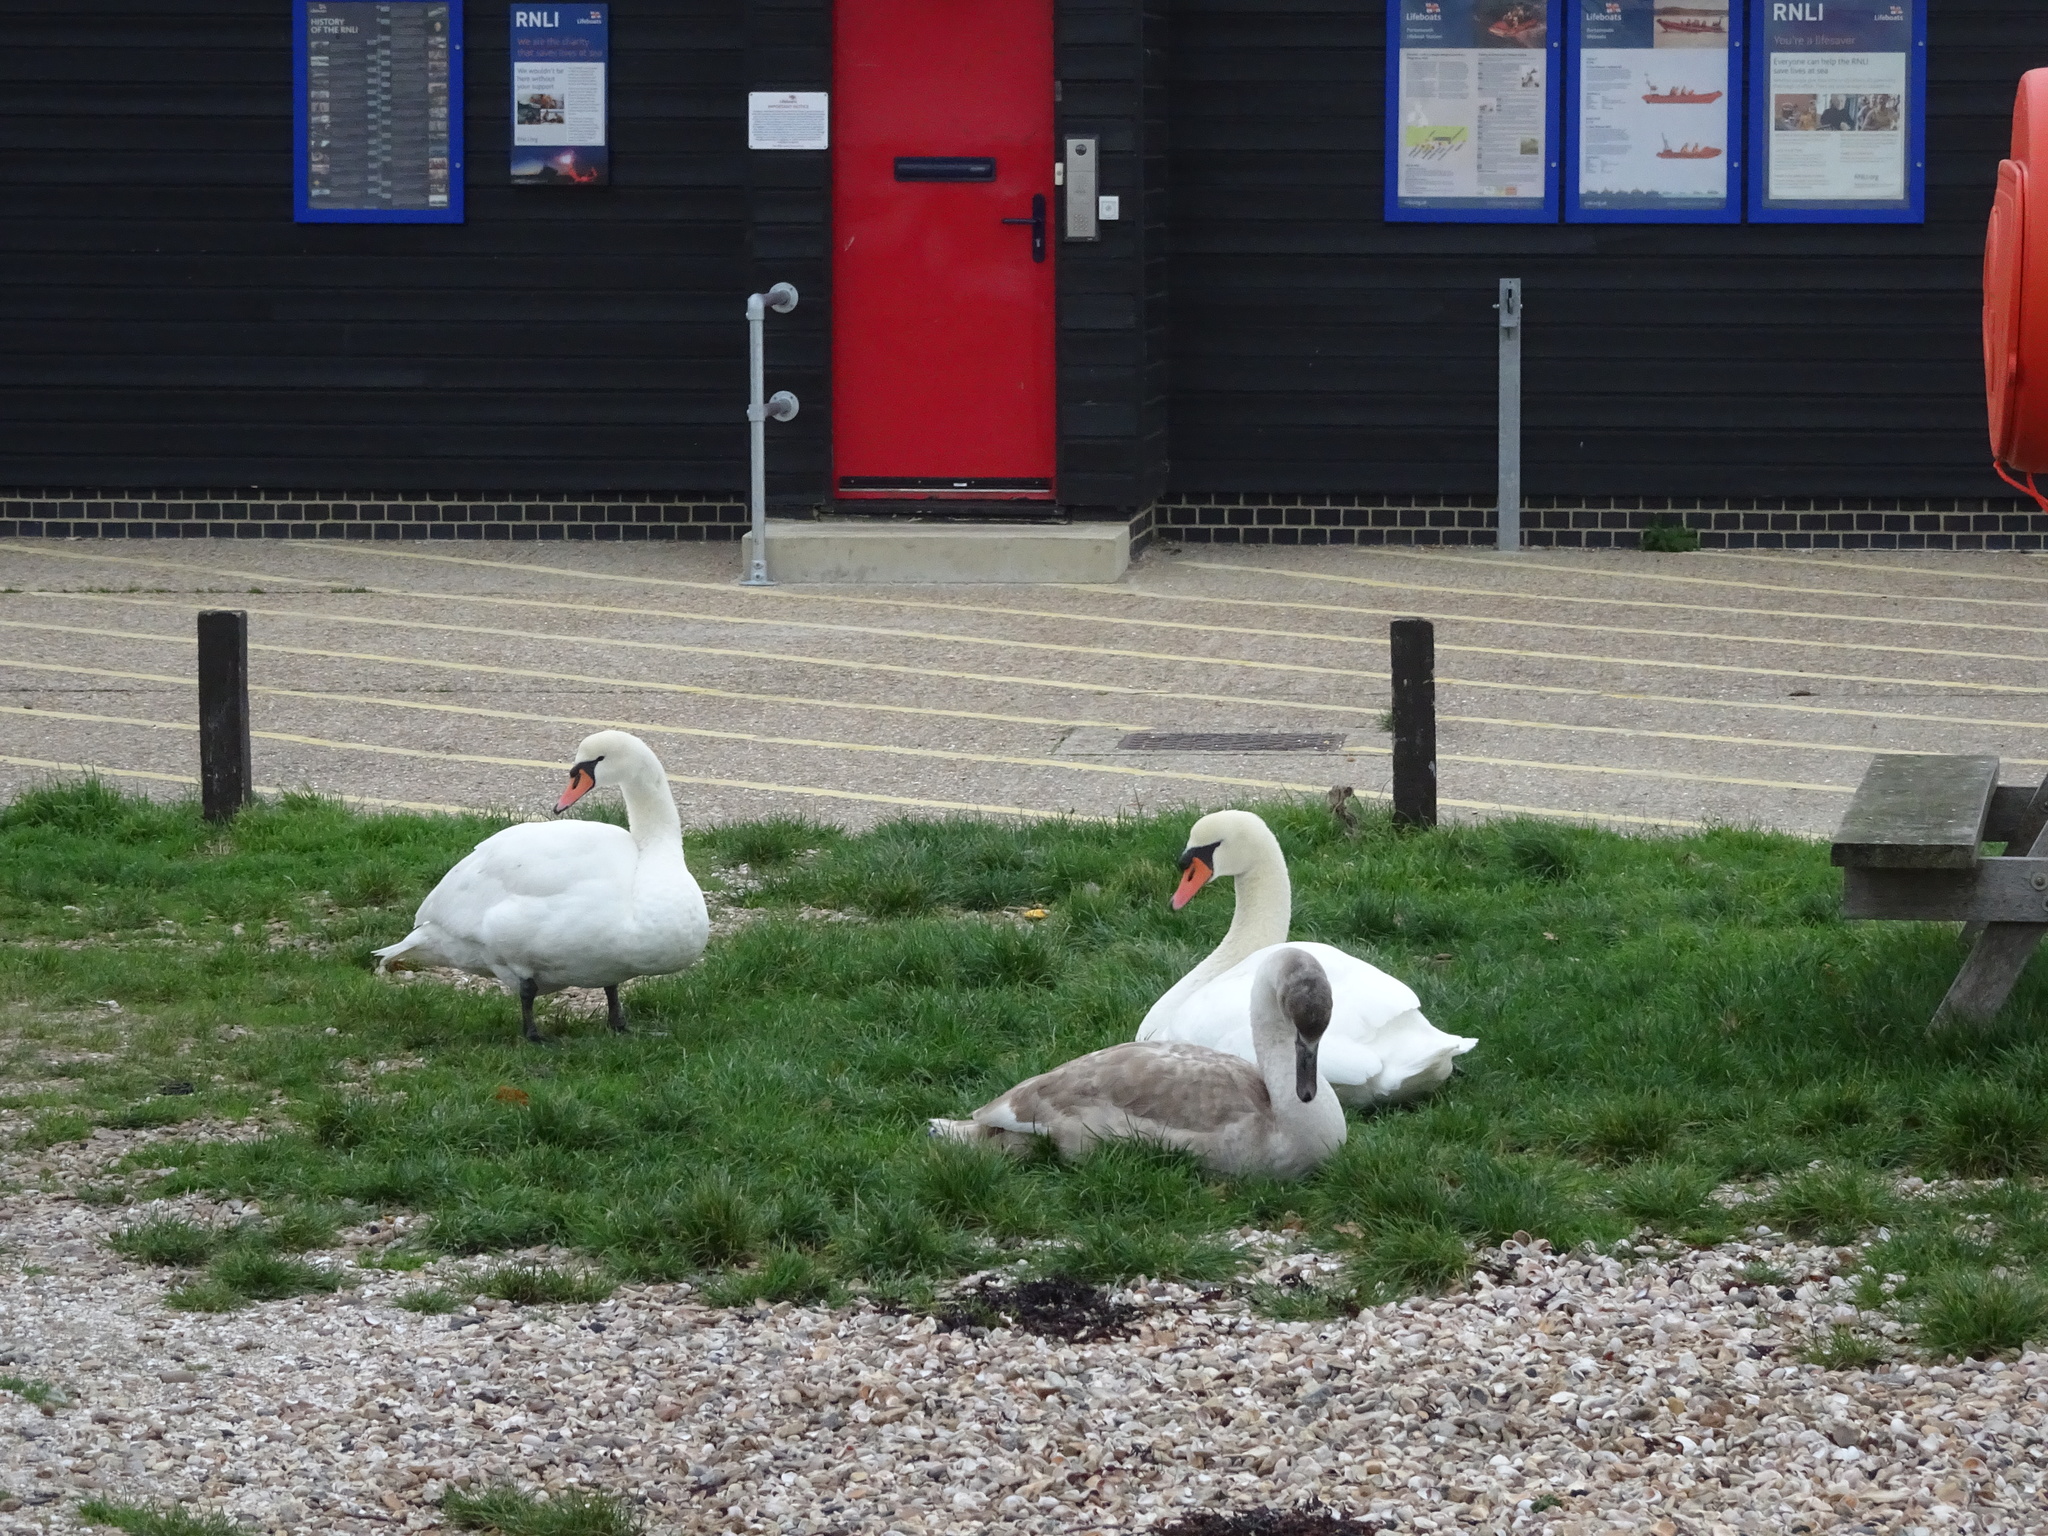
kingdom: Animalia
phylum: Chordata
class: Aves
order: Anseriformes
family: Anatidae
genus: Cygnus
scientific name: Cygnus olor
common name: Mute swan
